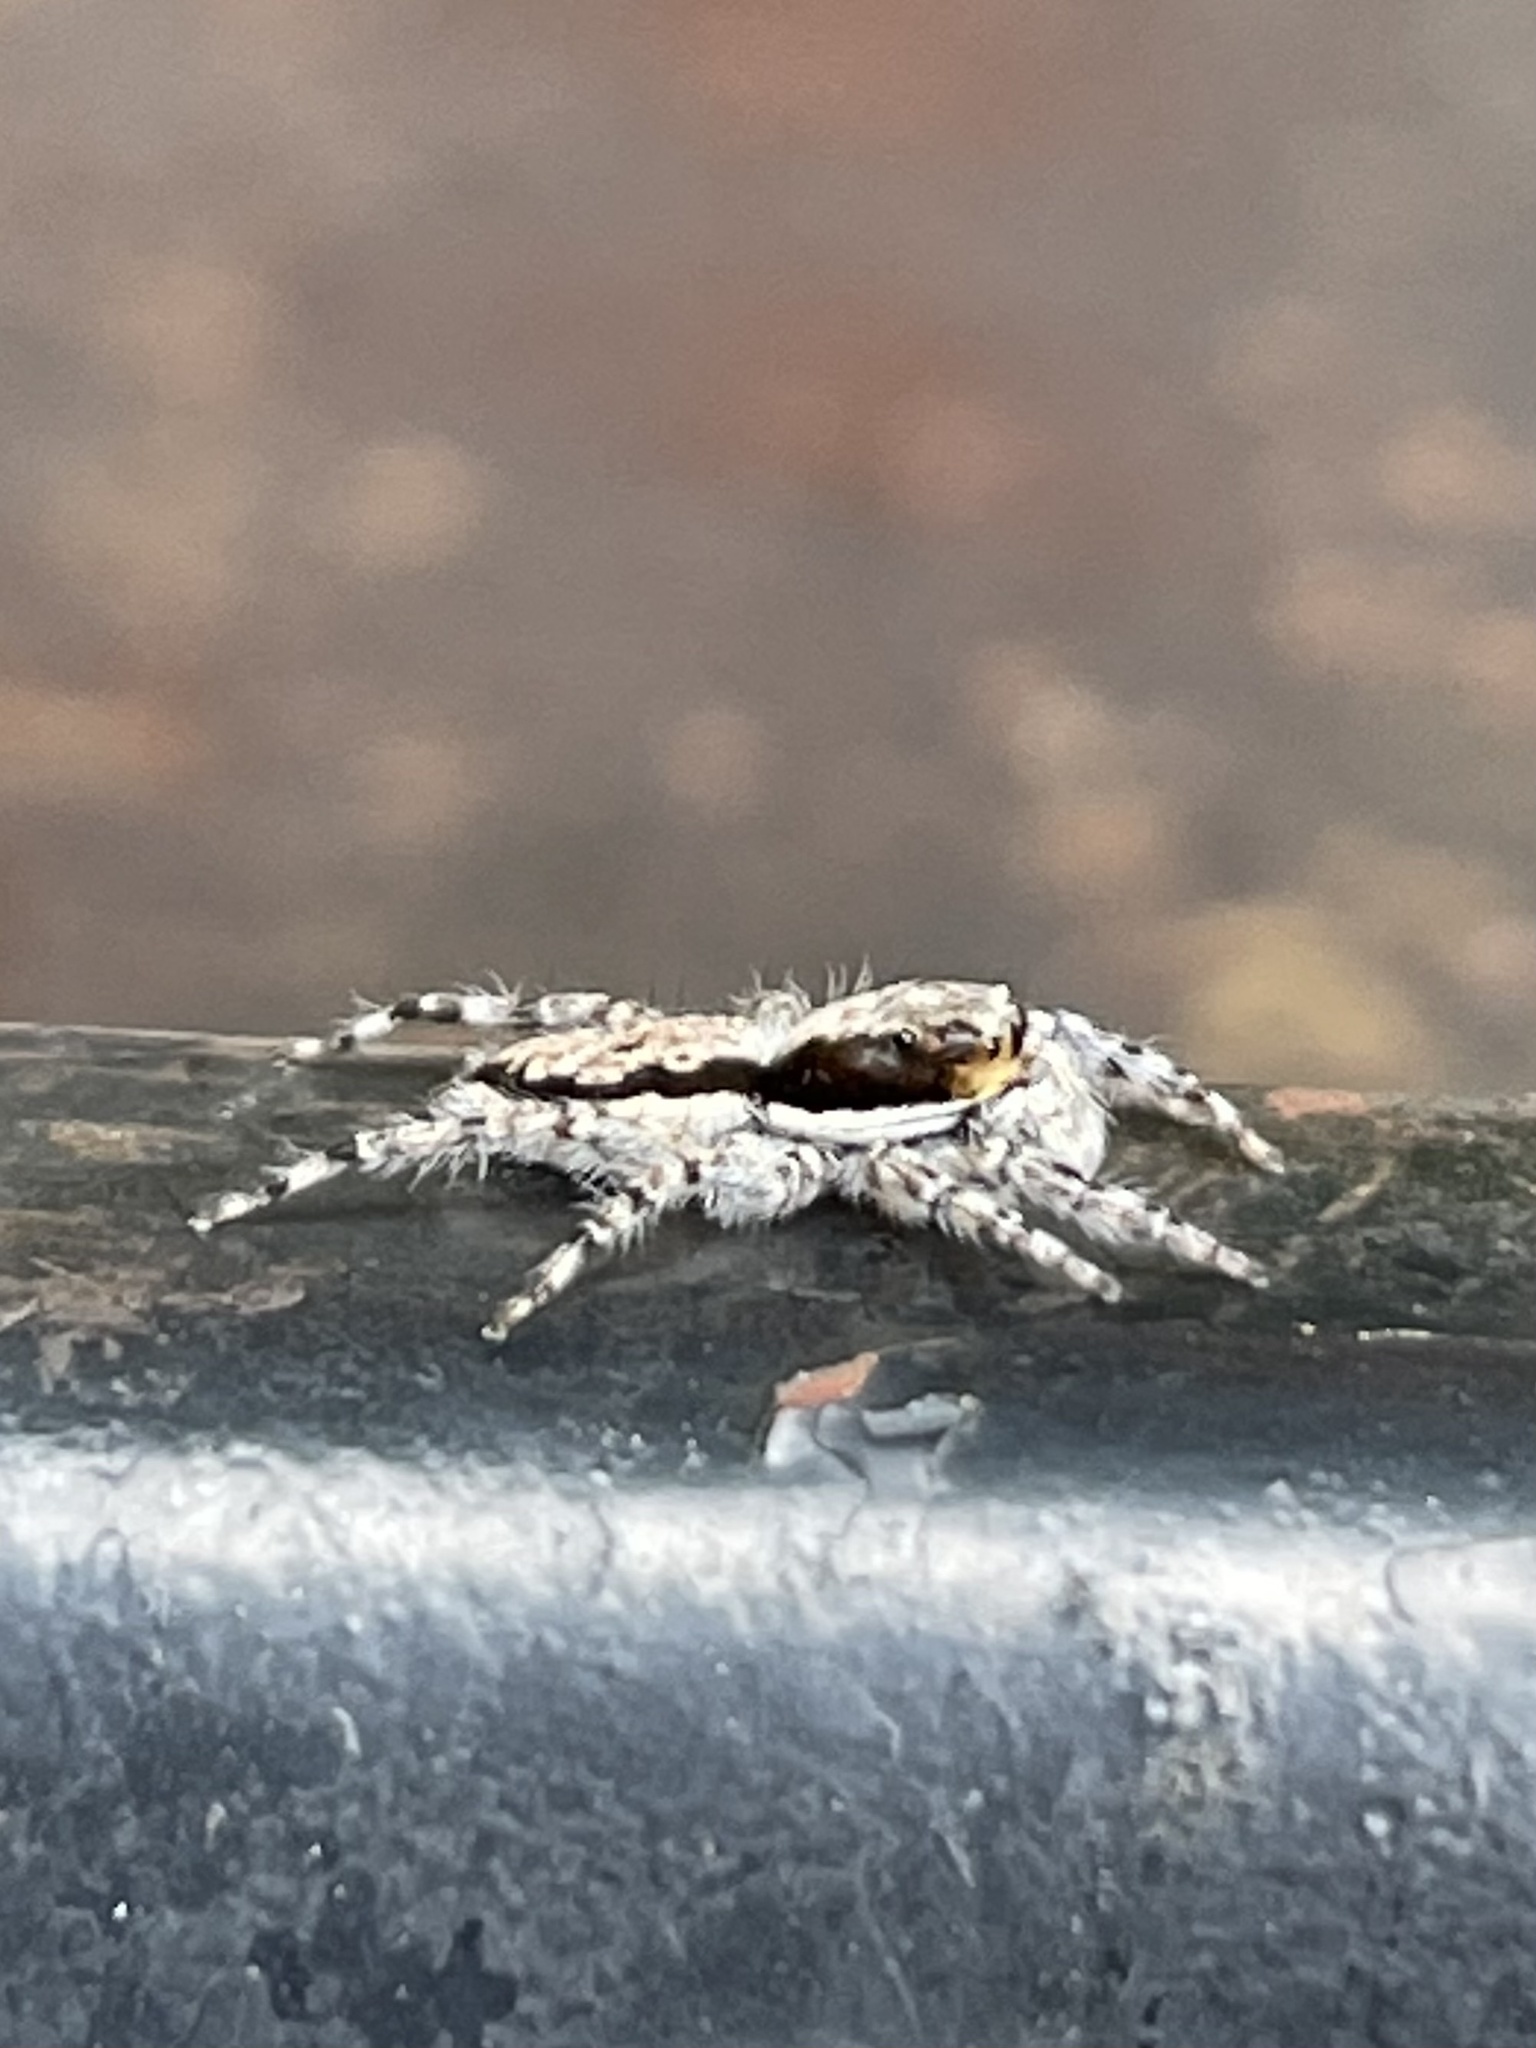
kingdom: Animalia
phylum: Arthropoda
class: Arachnida
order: Araneae
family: Salticidae
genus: Menemerus
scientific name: Menemerus bivittatus
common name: Gray wall jumper
